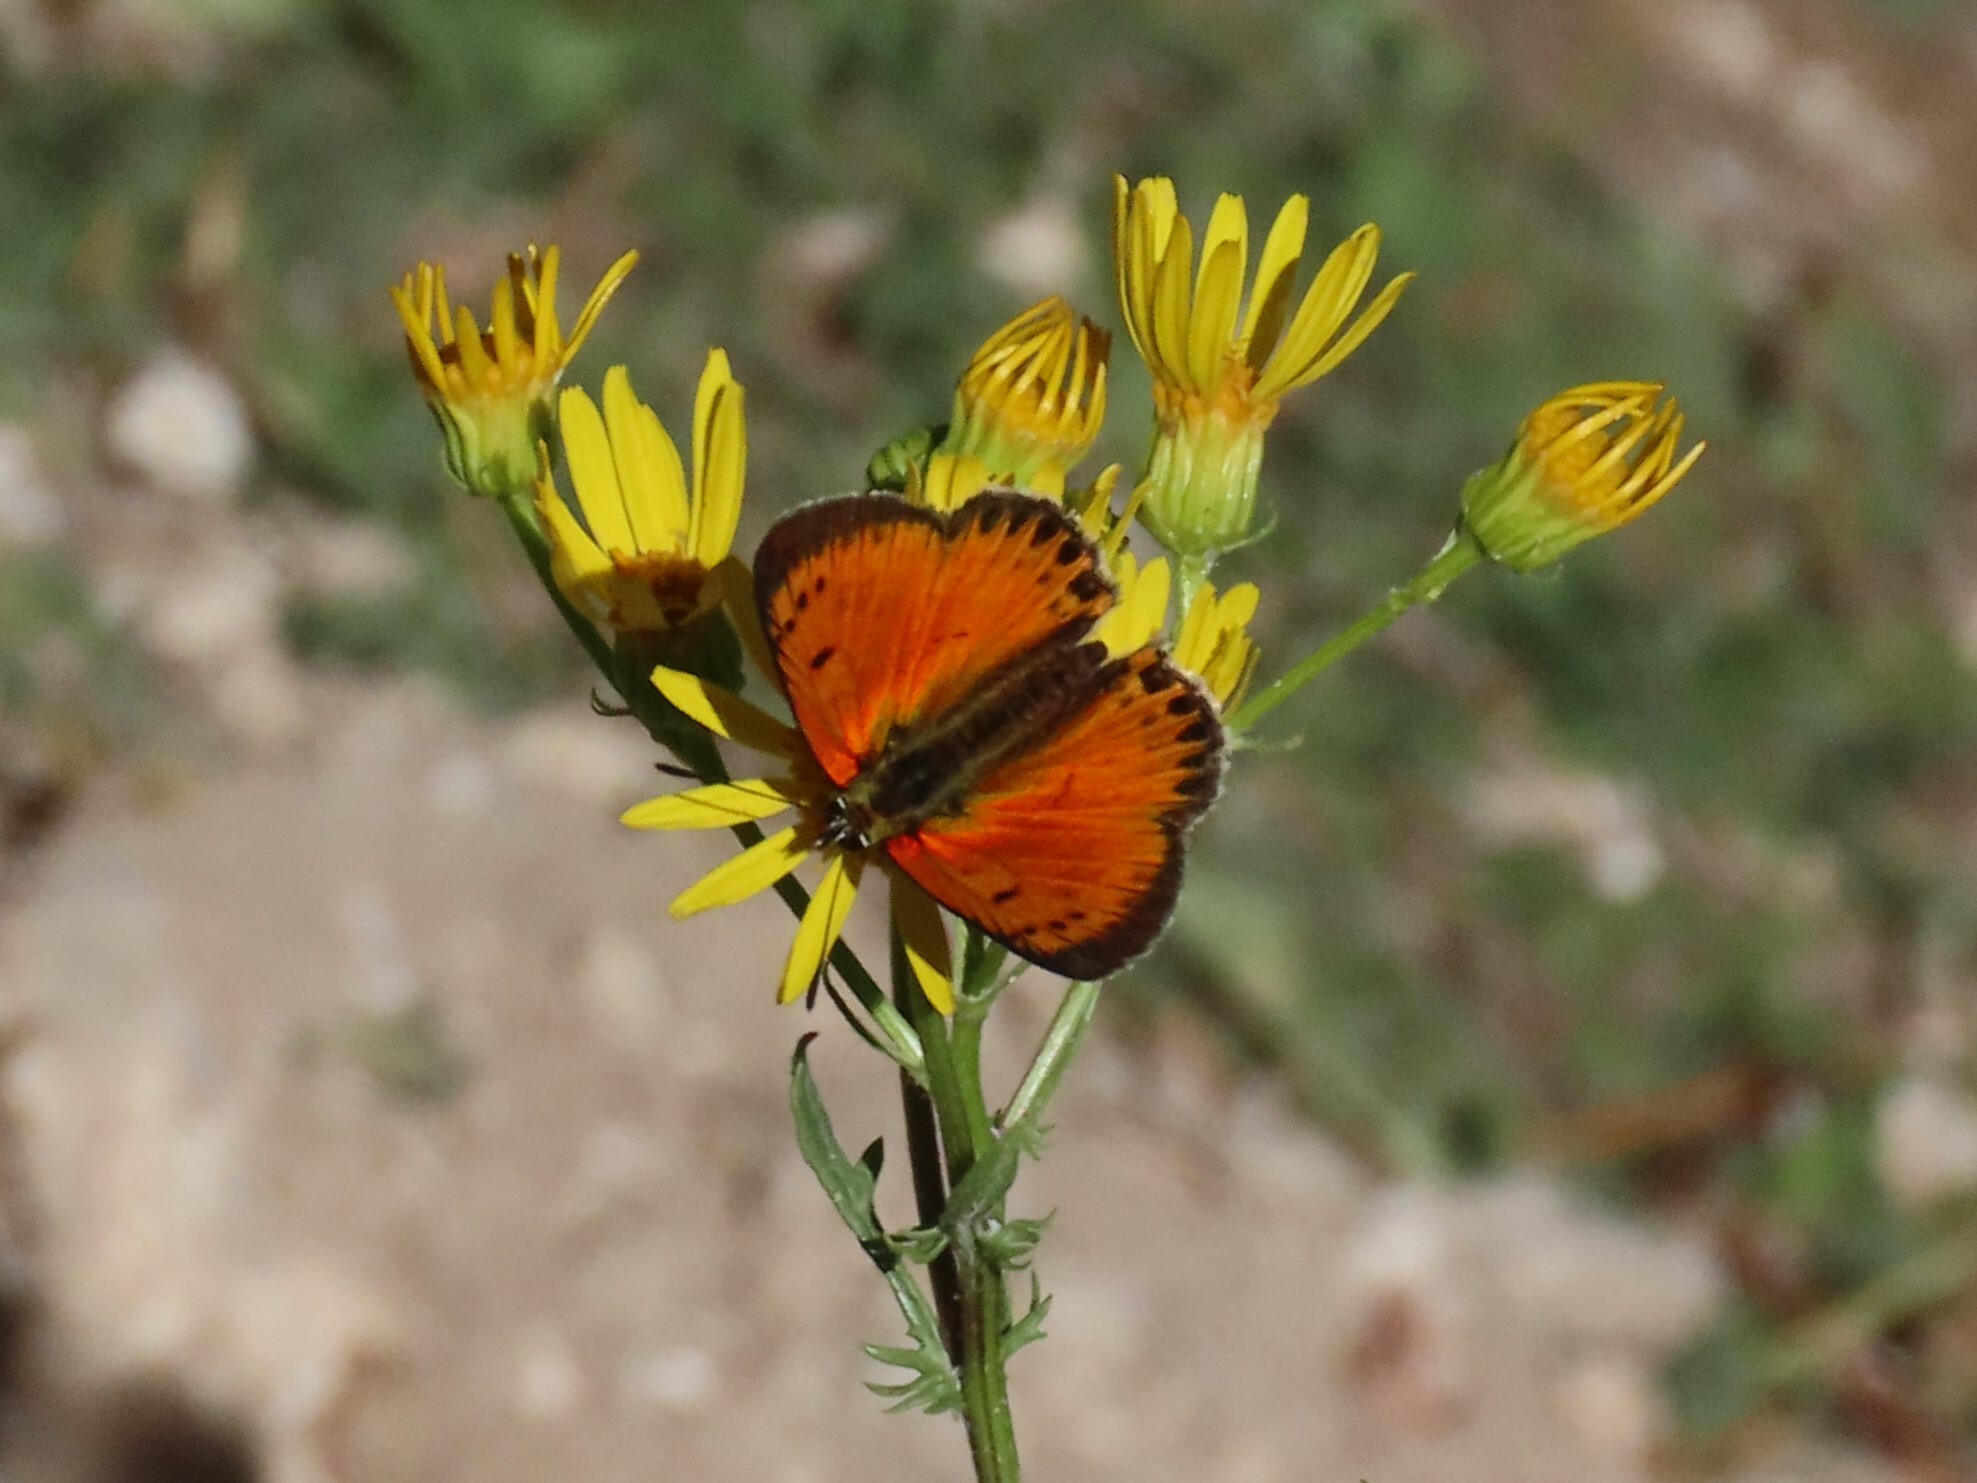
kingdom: Animalia
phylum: Arthropoda
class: Insecta
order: Lepidoptera
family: Lycaenidae
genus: Lycaena
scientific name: Lycaena virgaureae
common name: Scarce copper
